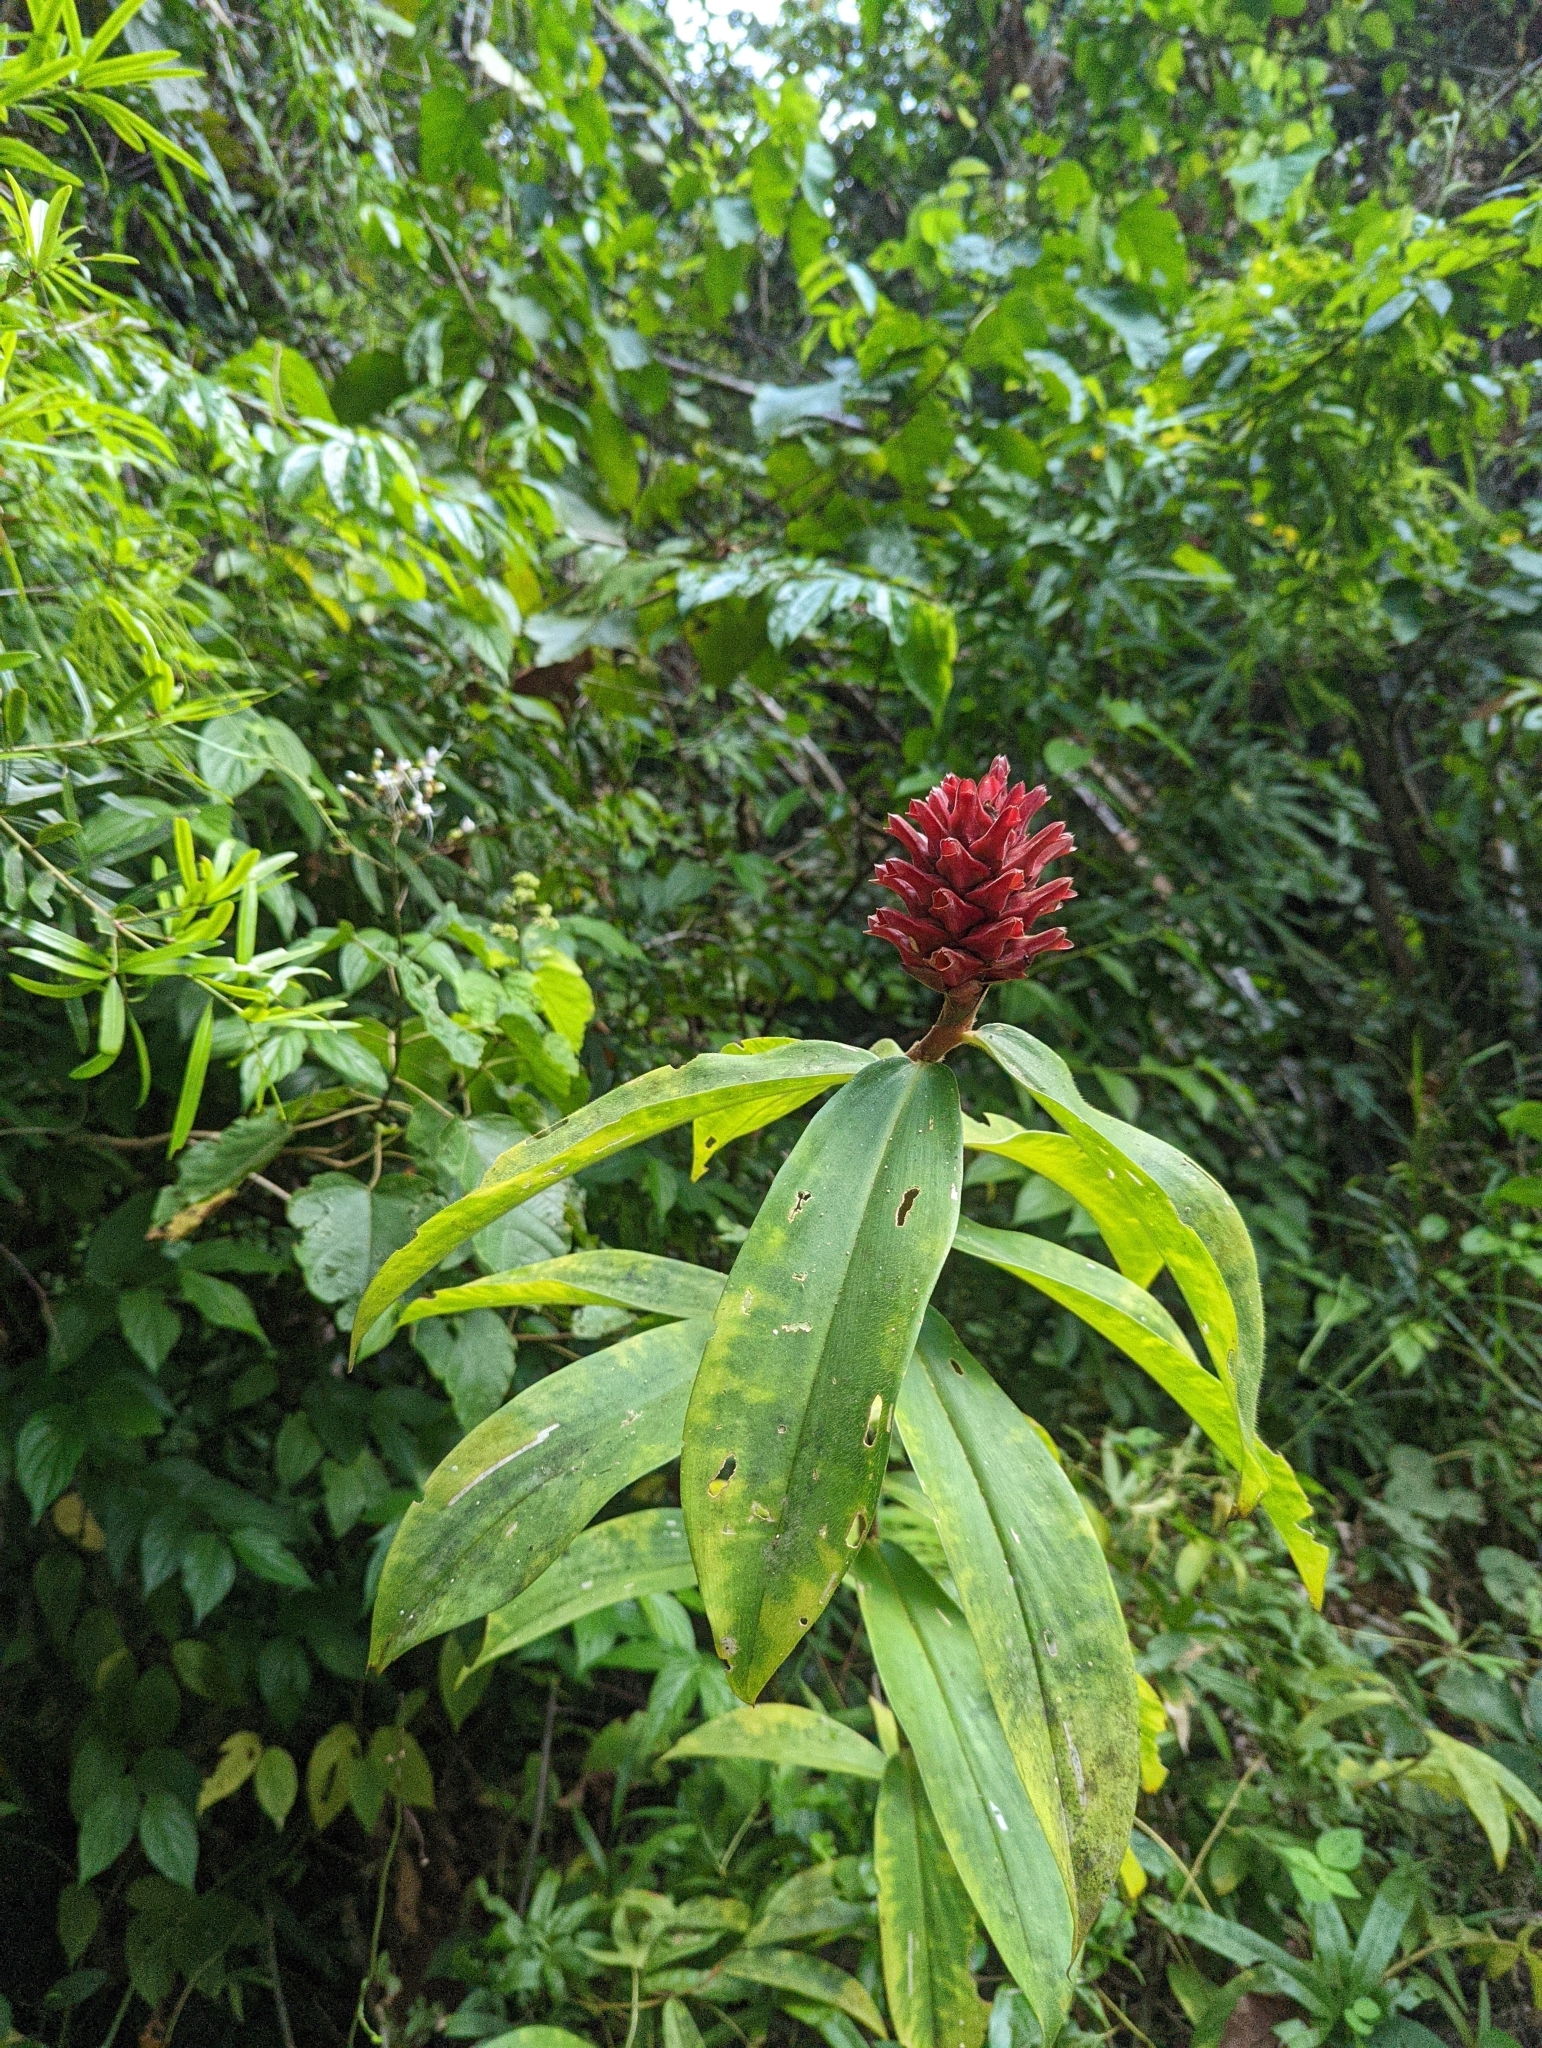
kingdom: Plantae
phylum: Tracheophyta
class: Liliopsida
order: Zingiberales
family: Costaceae
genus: Hellenia
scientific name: Hellenia speciosa
